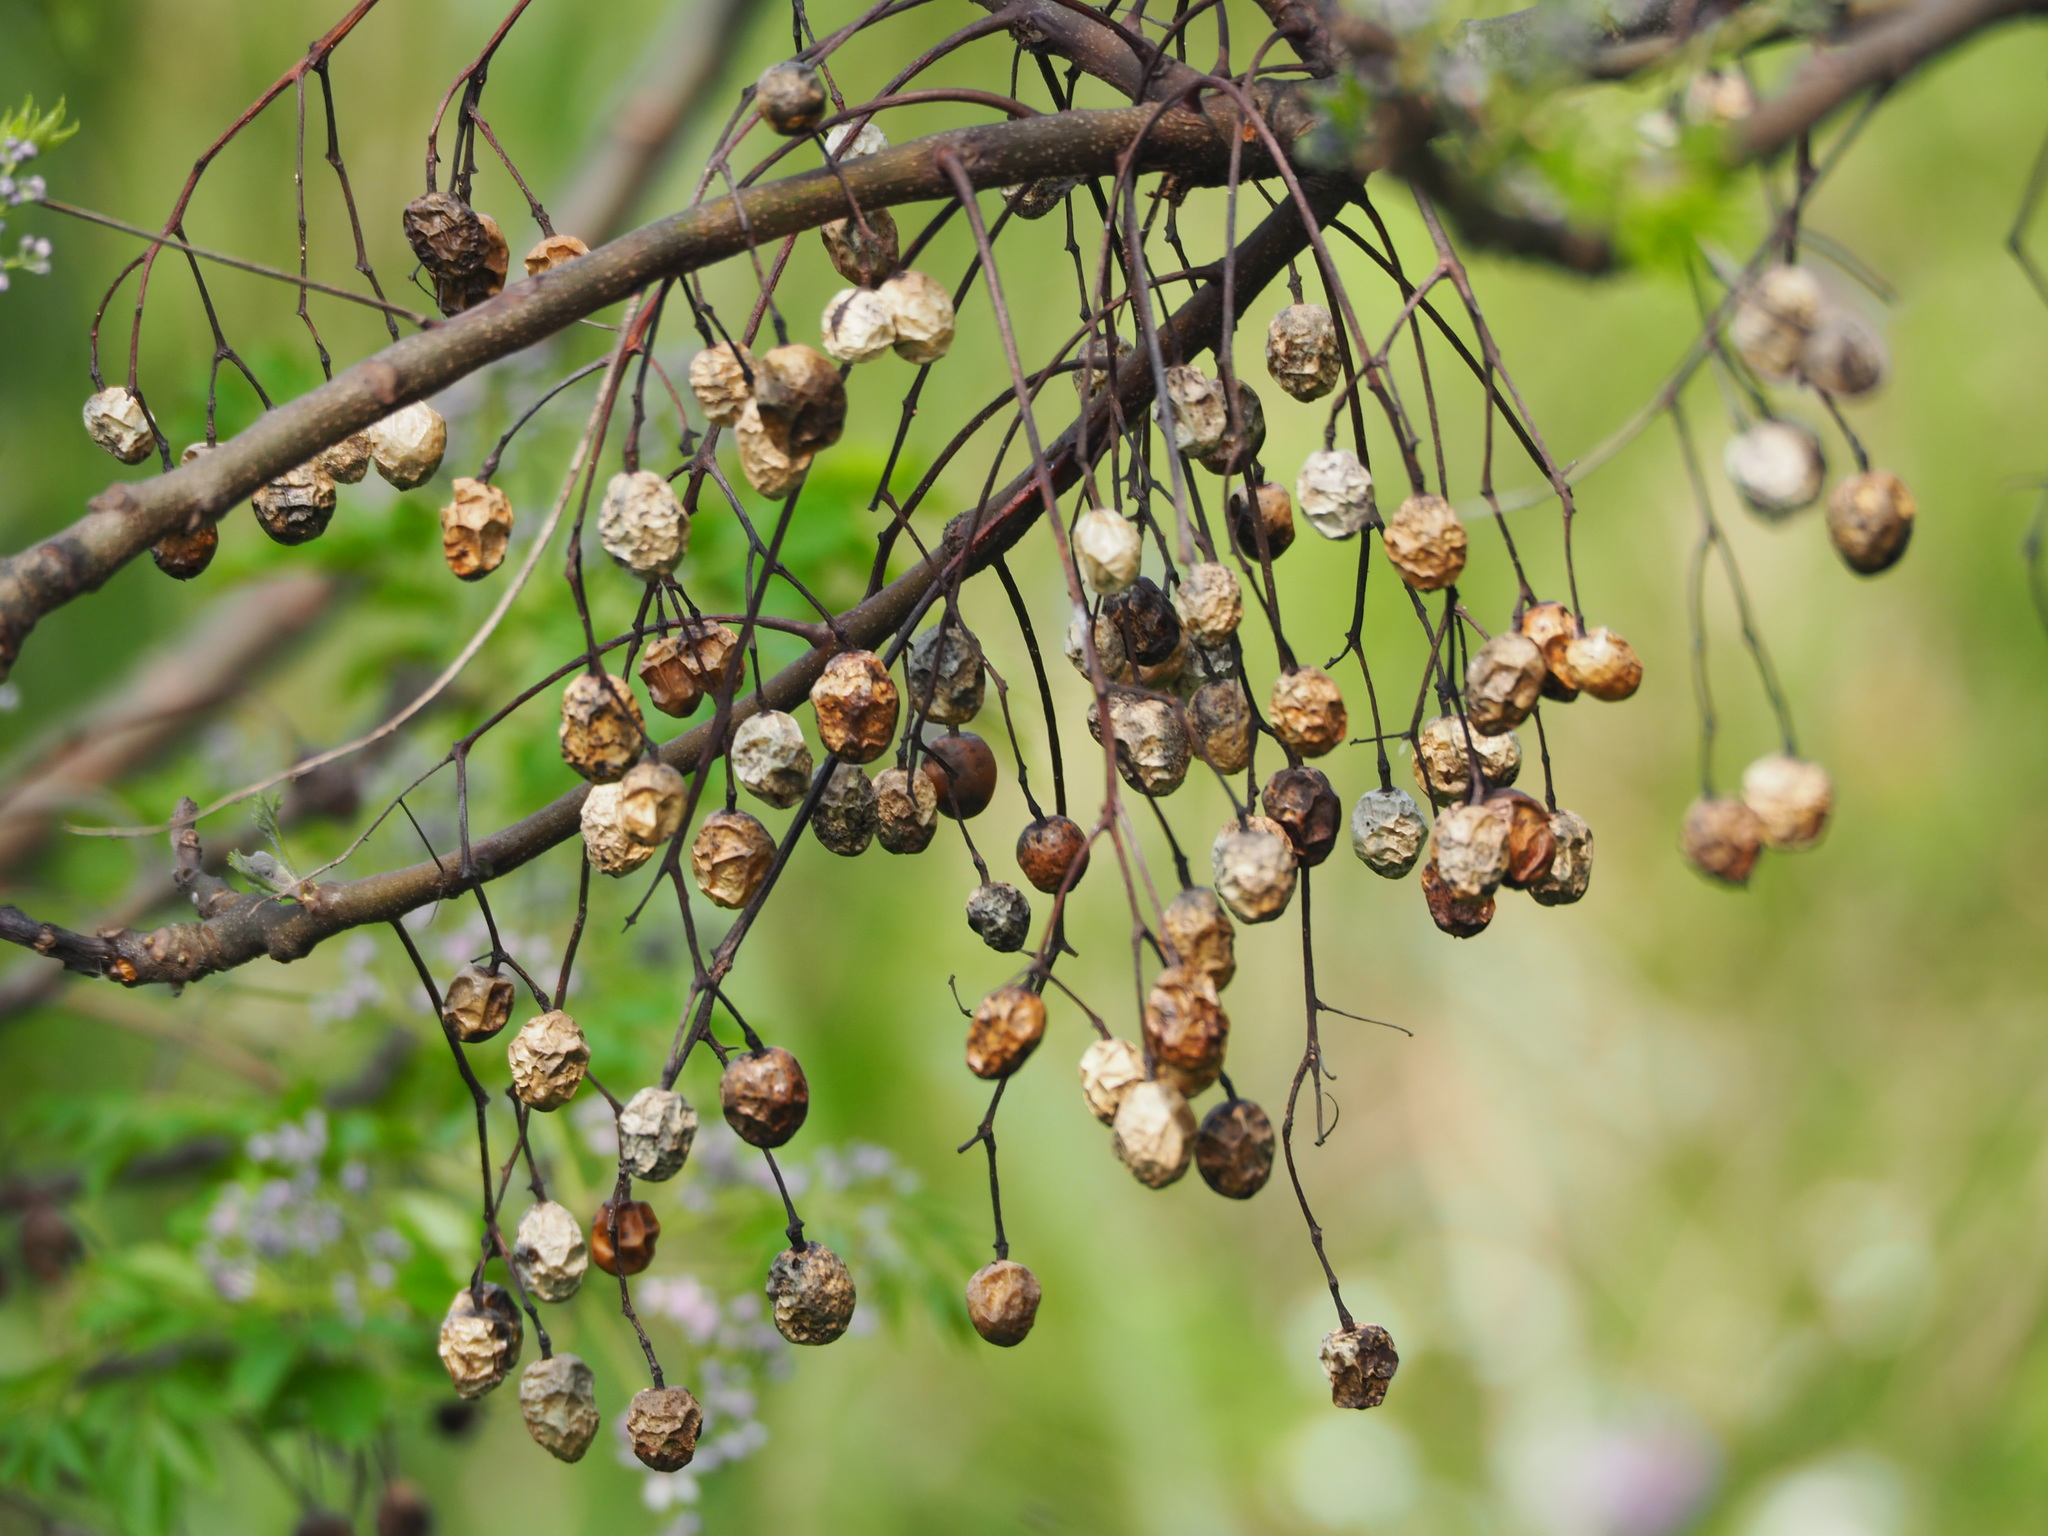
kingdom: Plantae
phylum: Tracheophyta
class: Magnoliopsida
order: Sapindales
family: Meliaceae
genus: Melia
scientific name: Melia azedarach
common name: Chinaberrytree
